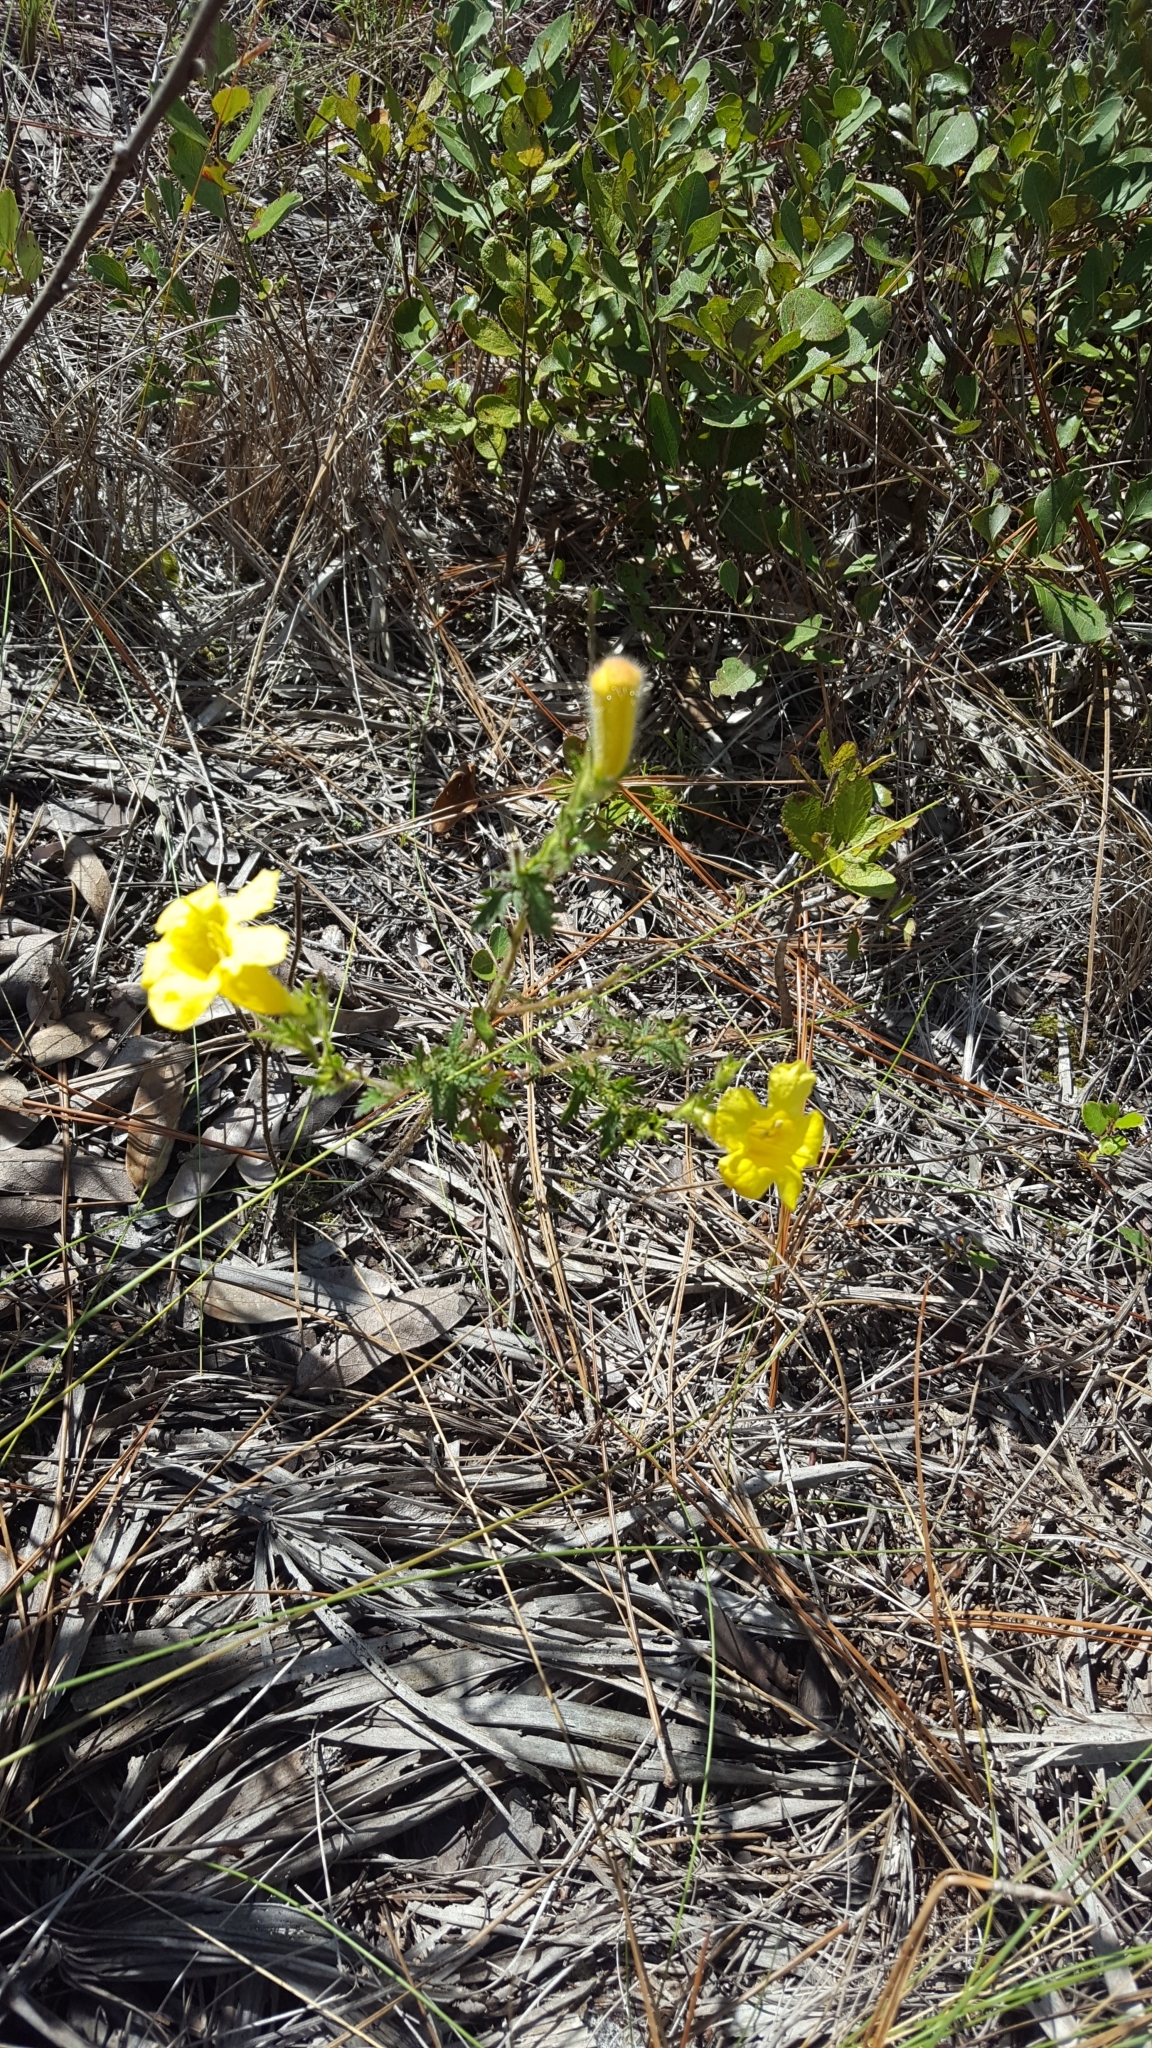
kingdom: Plantae
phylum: Tracheophyta
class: Magnoliopsida
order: Lamiales
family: Orobanchaceae
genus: Aureolaria
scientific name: Aureolaria pectinata
